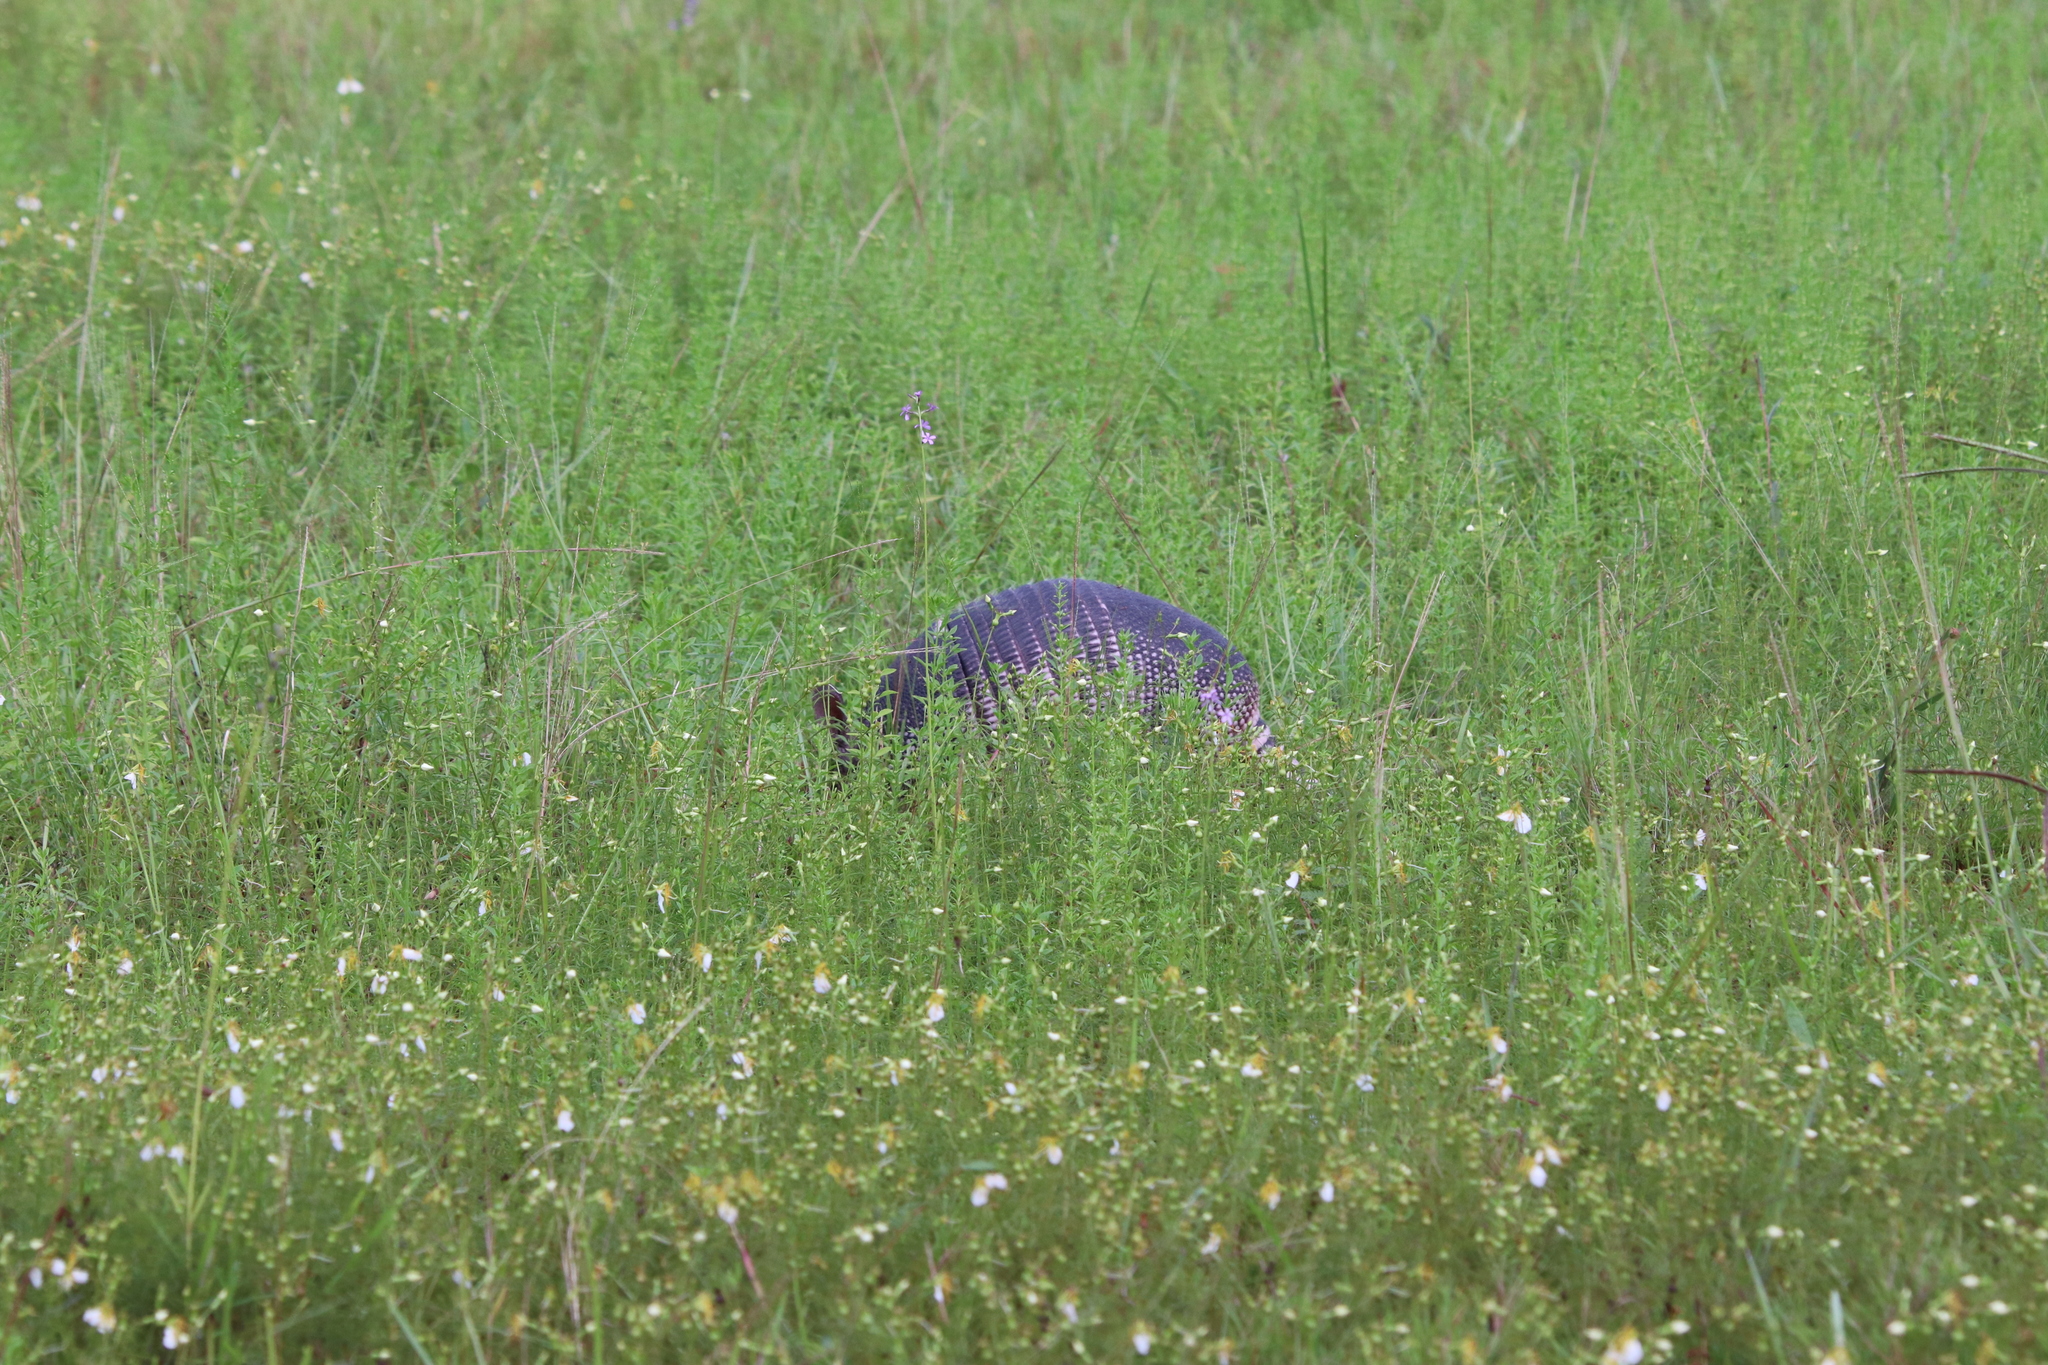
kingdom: Animalia
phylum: Chordata
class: Mammalia
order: Cingulata
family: Dasypodidae
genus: Dasypus
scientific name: Dasypus novemcinctus
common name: Nine-banded armadillo
